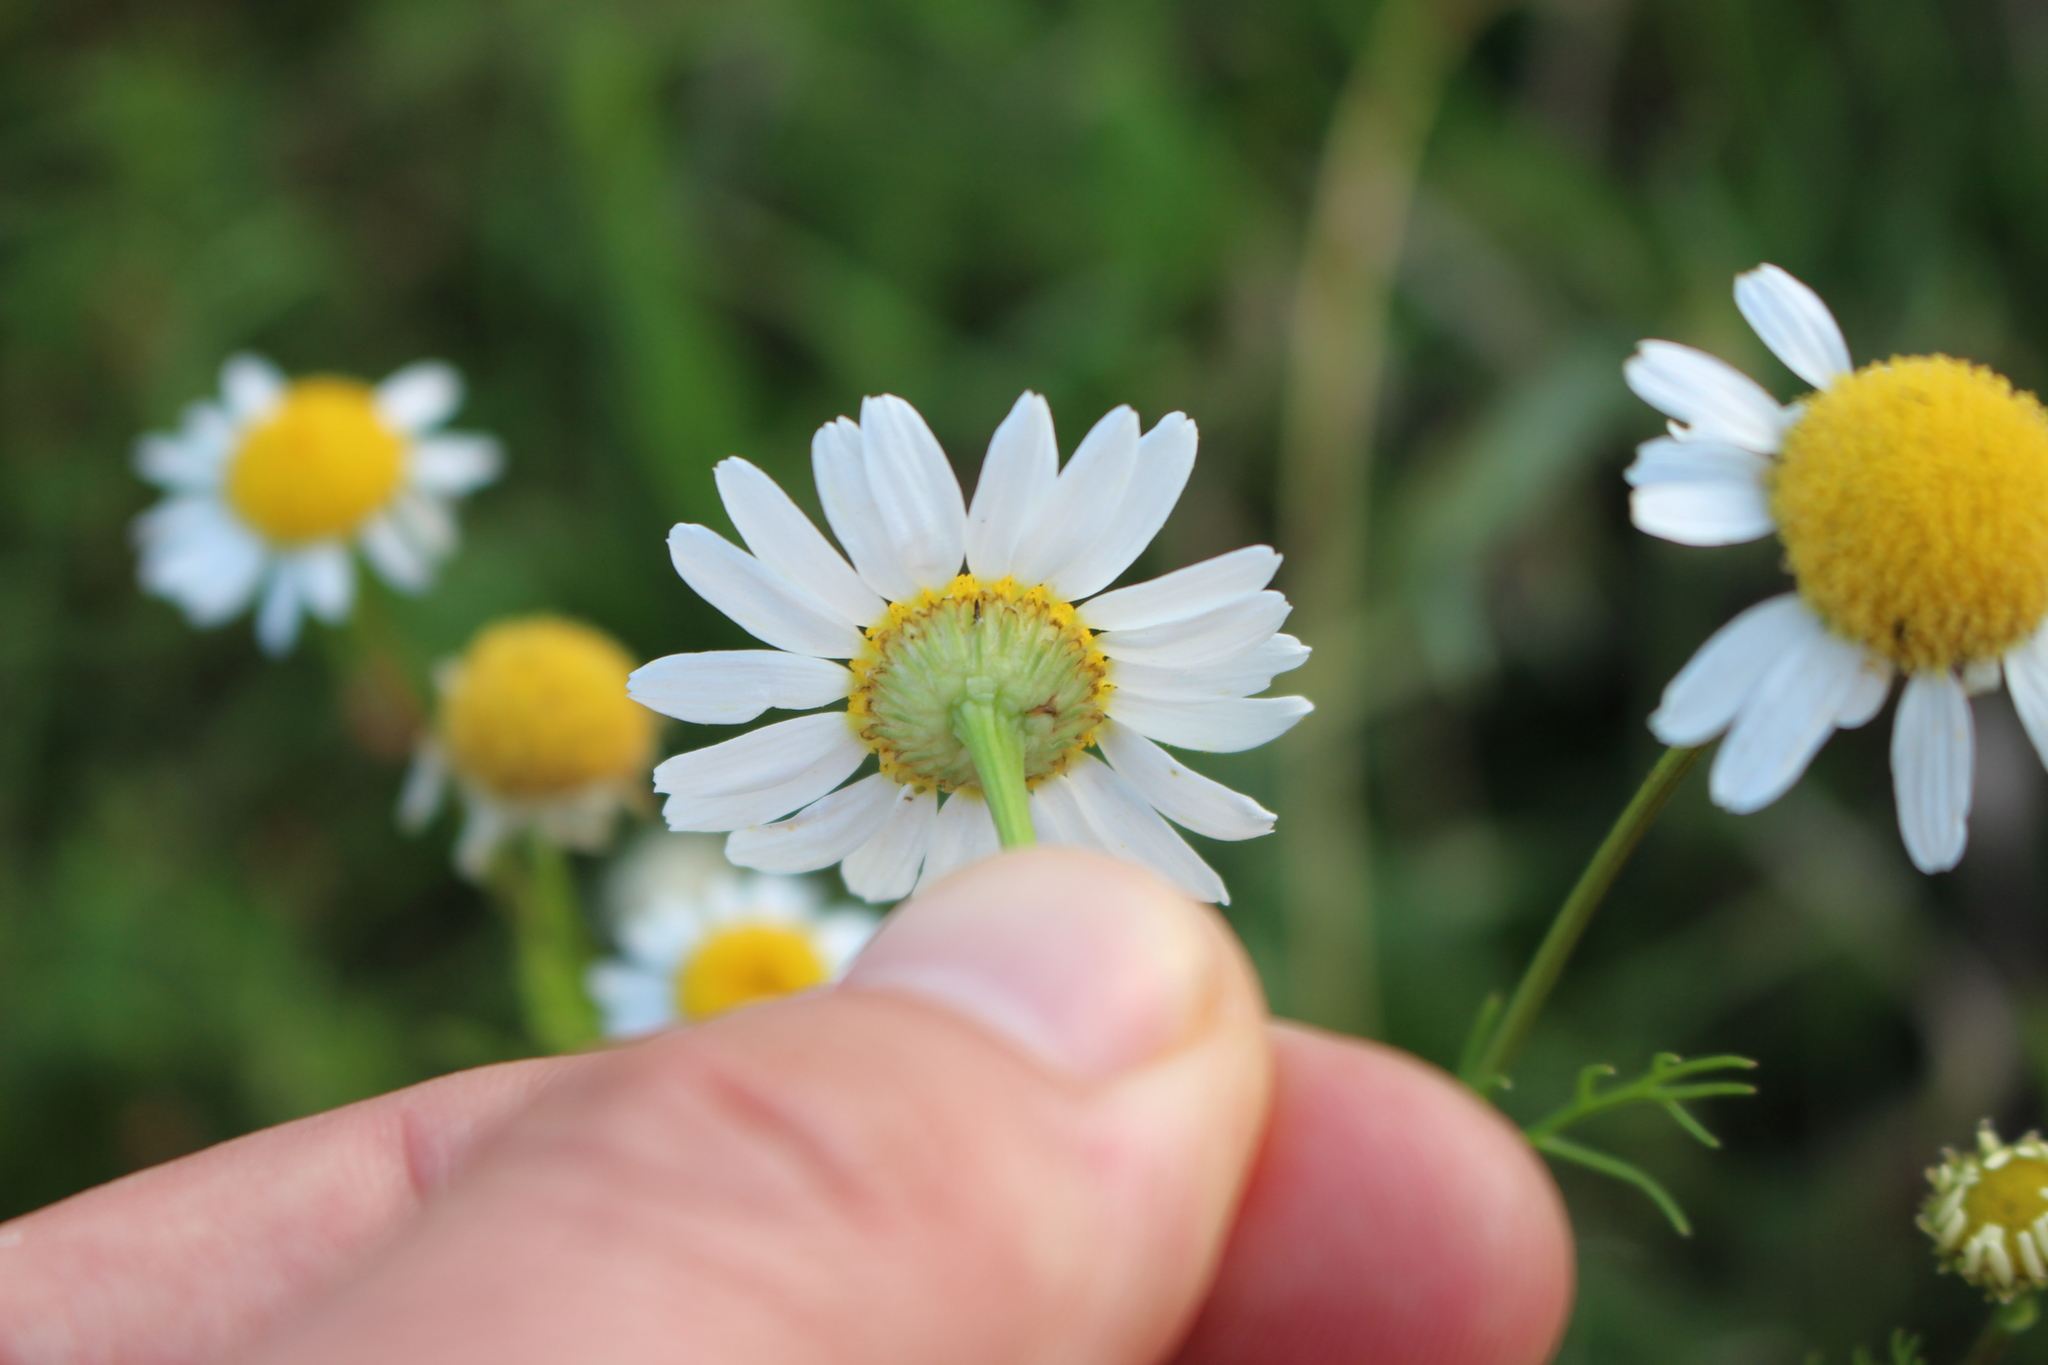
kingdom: Plantae
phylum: Tracheophyta
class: Magnoliopsida
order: Asterales
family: Asteraceae
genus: Tripleurospermum
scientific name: Tripleurospermum inodorum
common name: Scentless mayweed
